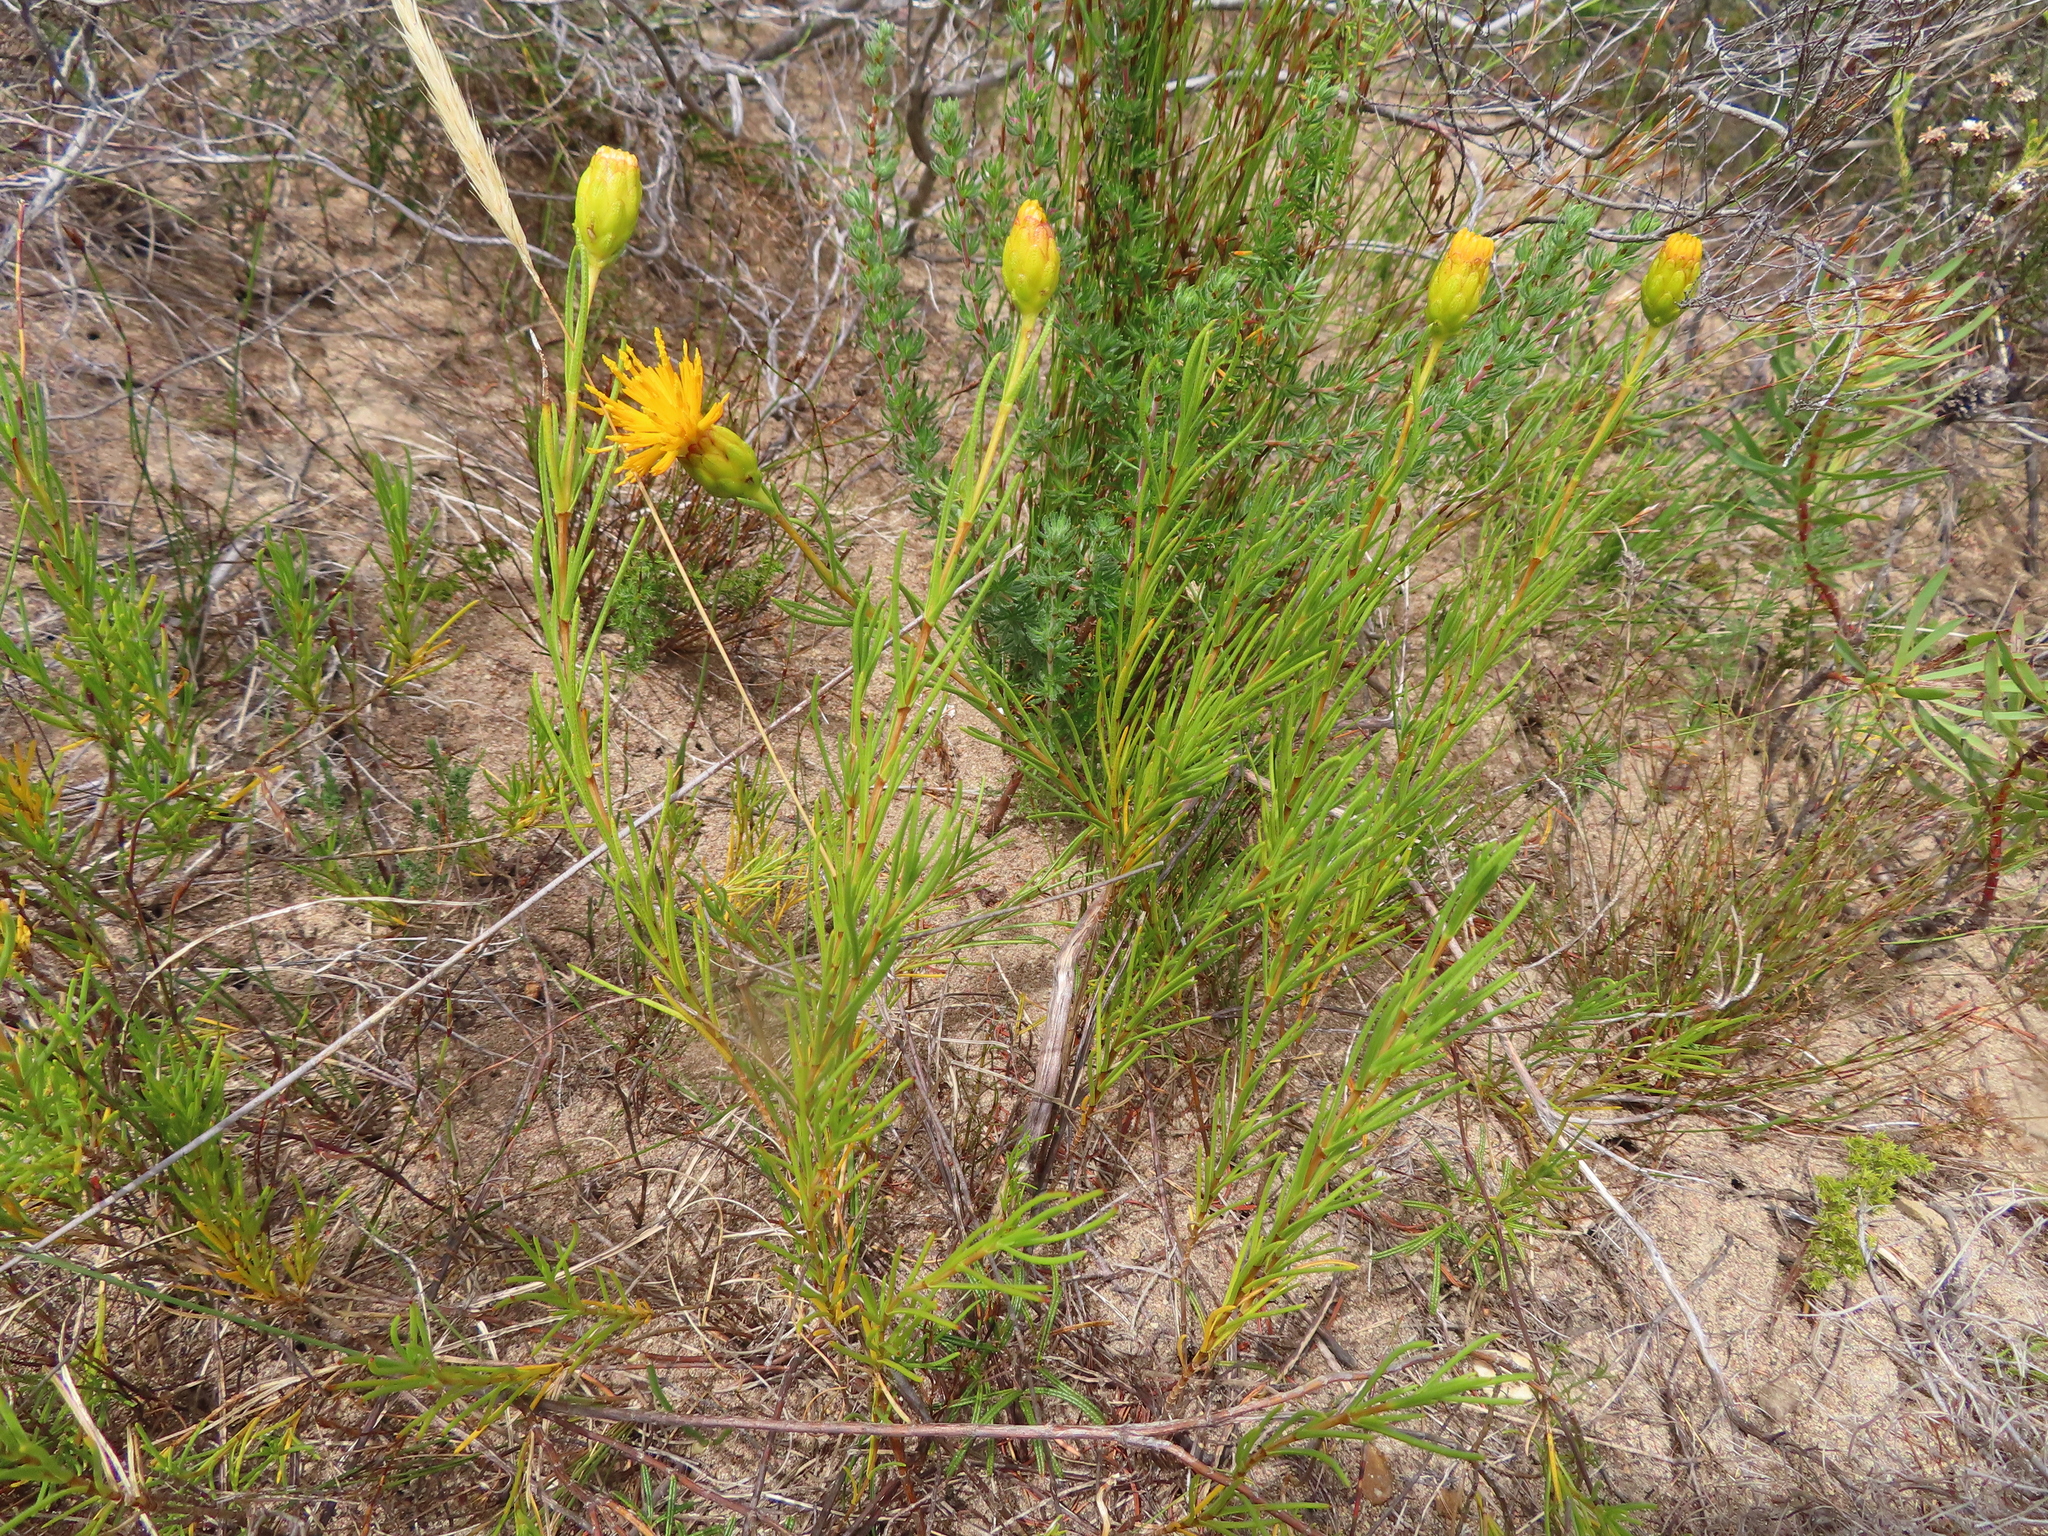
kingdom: Plantae
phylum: Tracheophyta
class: Magnoliopsida
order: Asterales
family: Asteraceae
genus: Pteronia
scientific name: Pteronia tenuifolia
